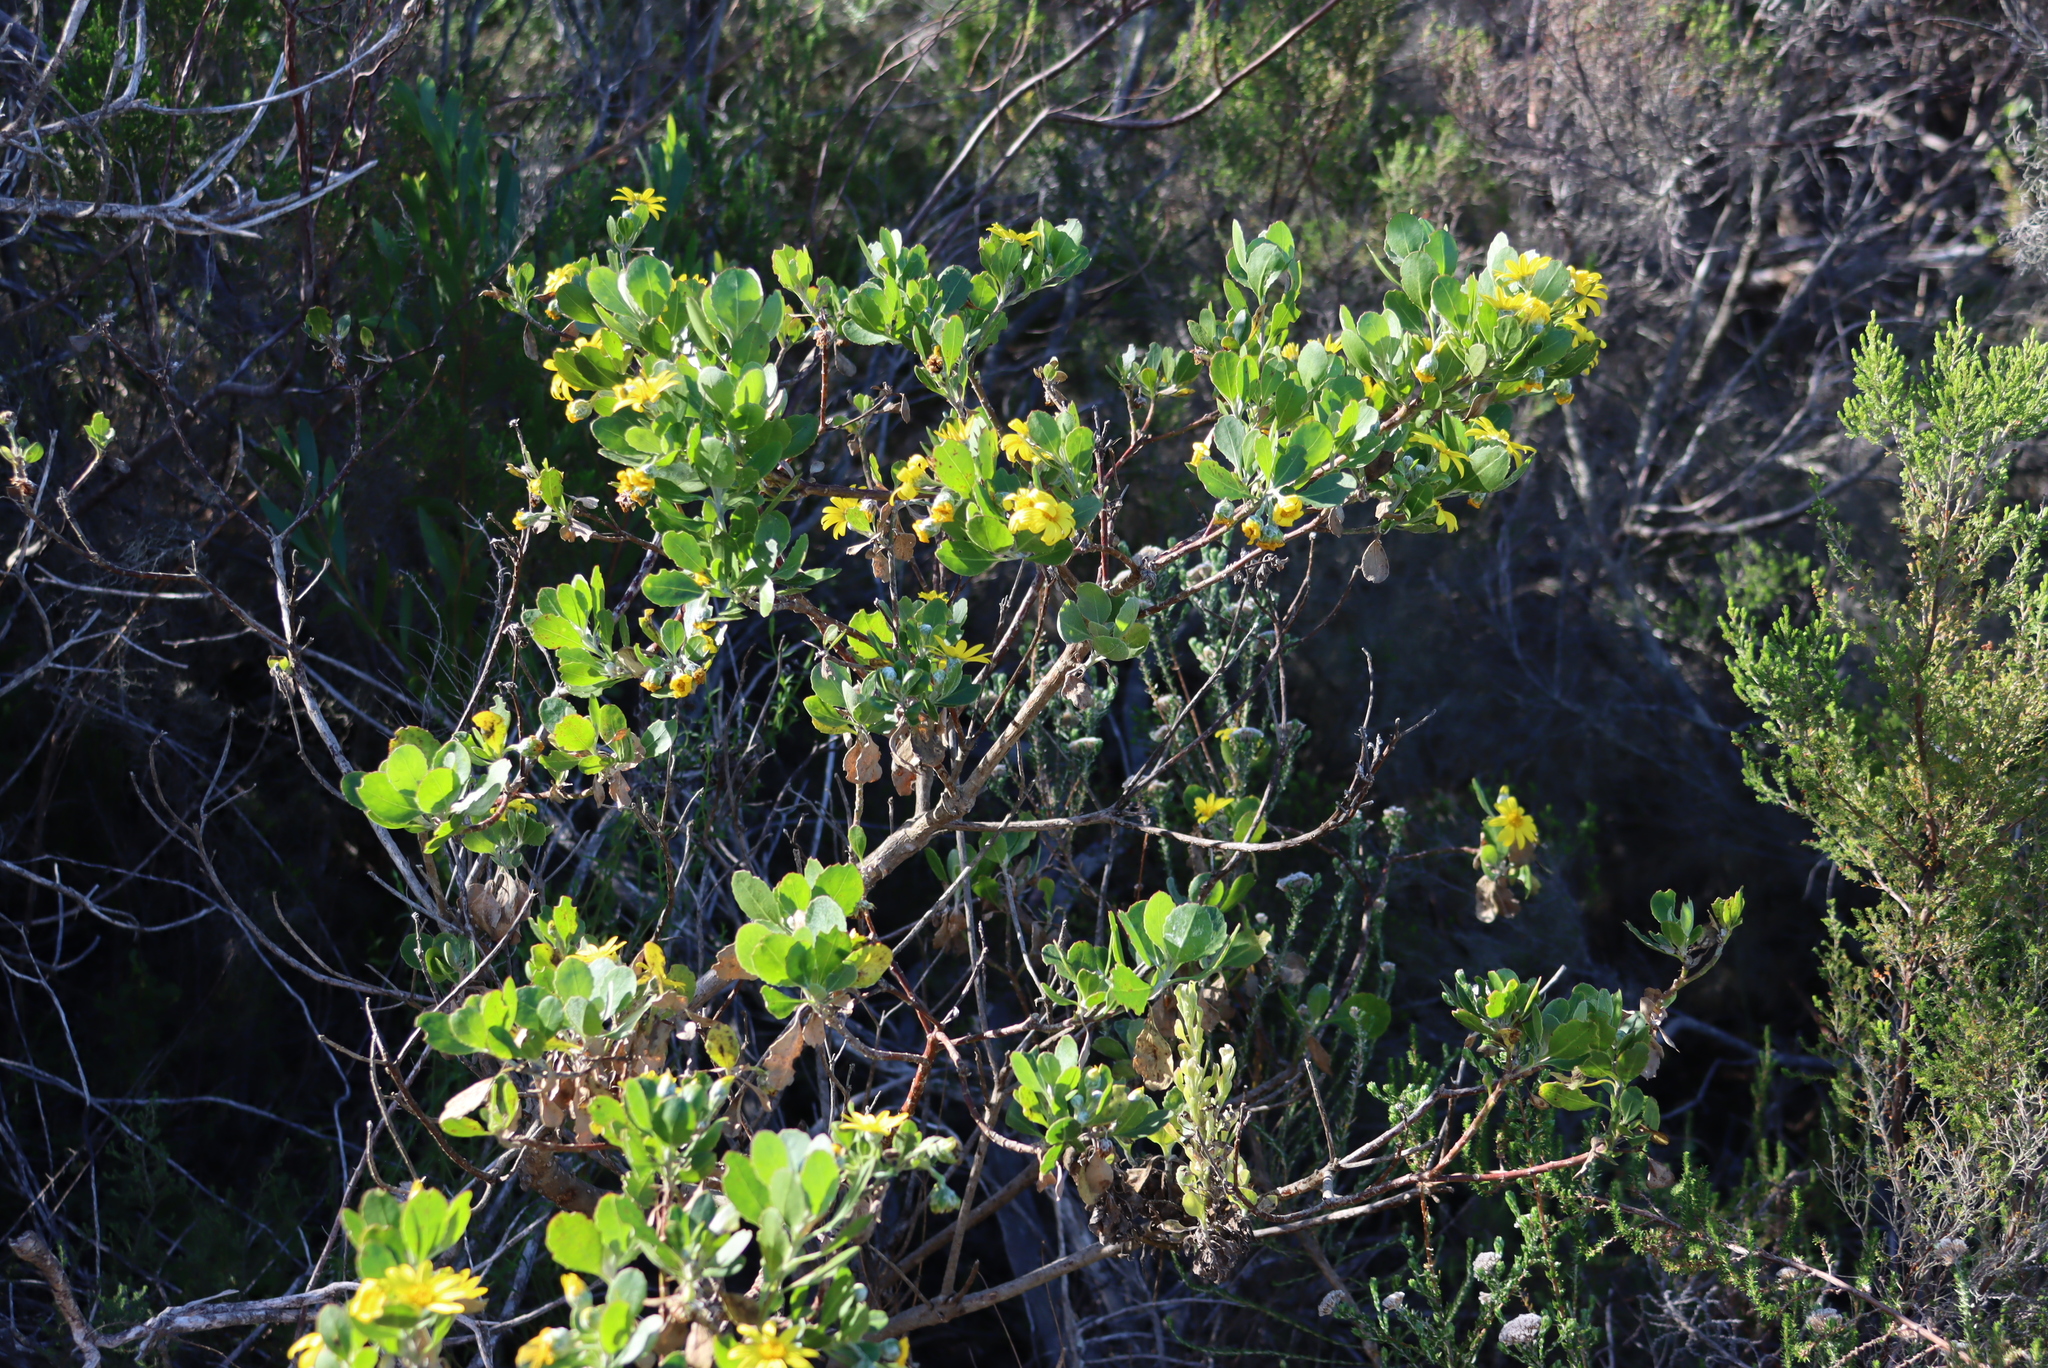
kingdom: Plantae
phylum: Tracheophyta
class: Magnoliopsida
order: Asterales
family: Asteraceae
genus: Osteospermum
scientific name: Osteospermum moniliferum
